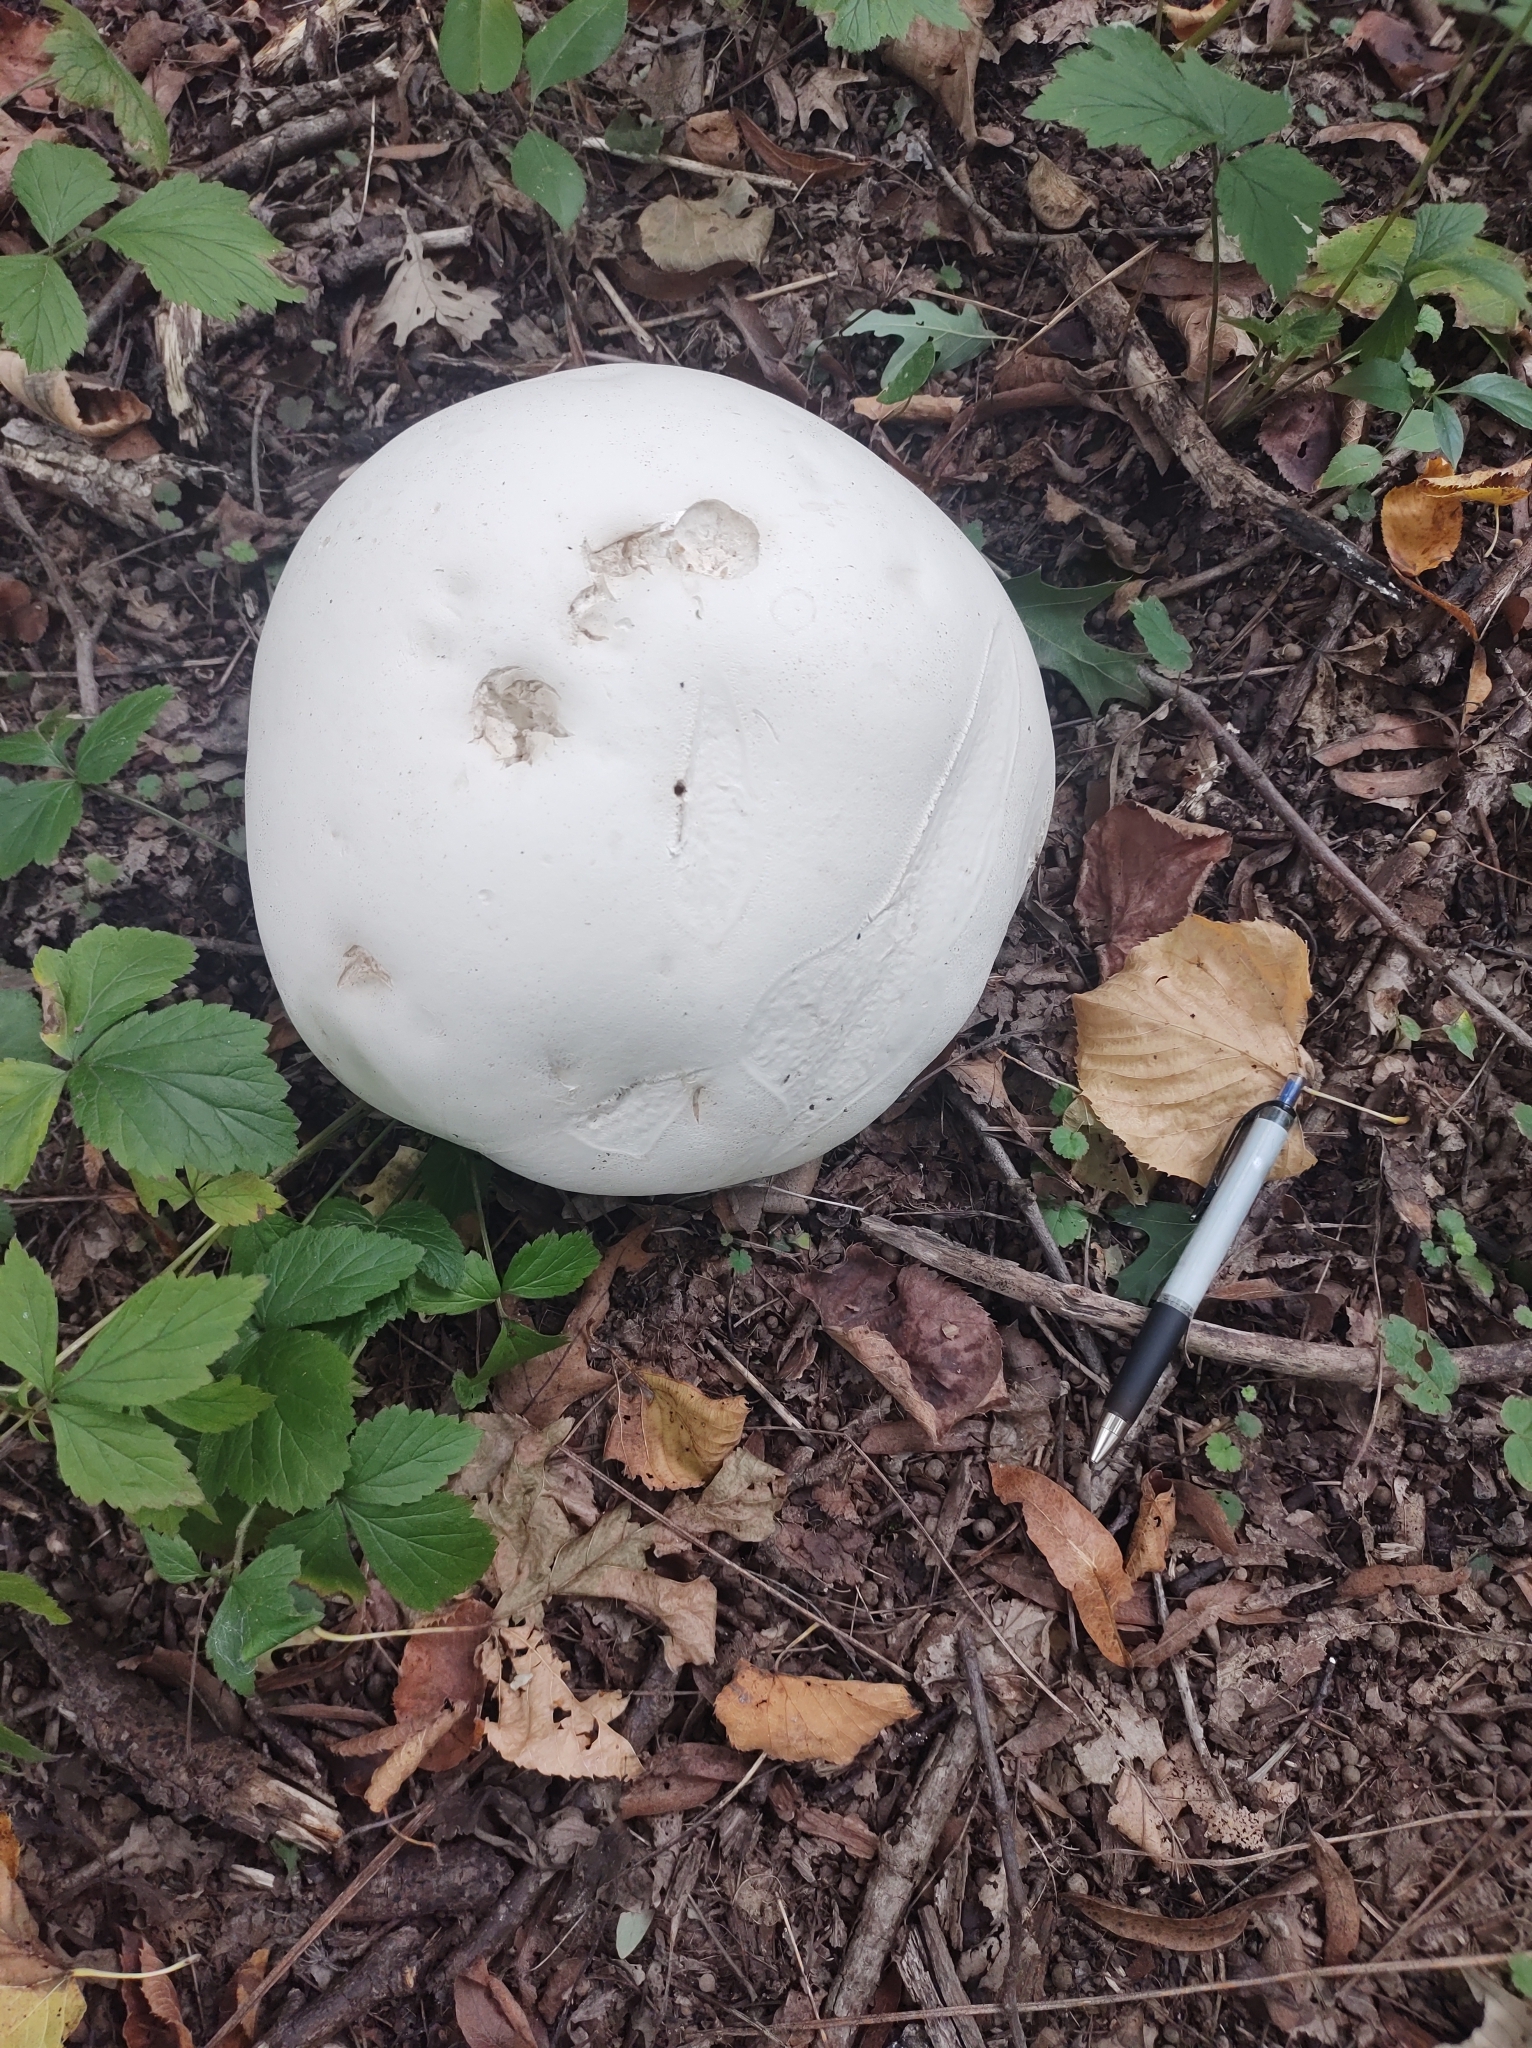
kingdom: Fungi
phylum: Basidiomycota
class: Agaricomycetes
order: Agaricales
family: Lycoperdaceae
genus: Calvatia
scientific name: Calvatia gigantea
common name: Giant puffball
